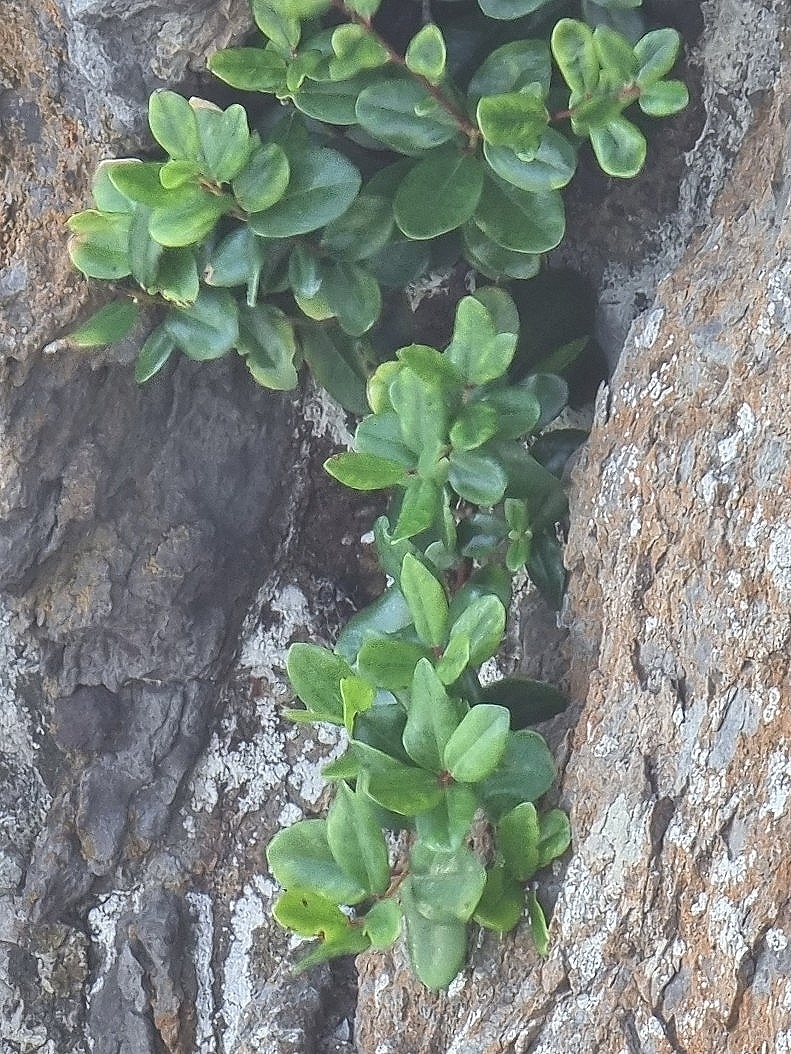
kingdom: Plantae
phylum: Tracheophyta
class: Magnoliopsida
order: Myrtales
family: Myrtaceae
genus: Metrosideros
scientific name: Metrosideros excelsa
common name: New zealand christmastree
